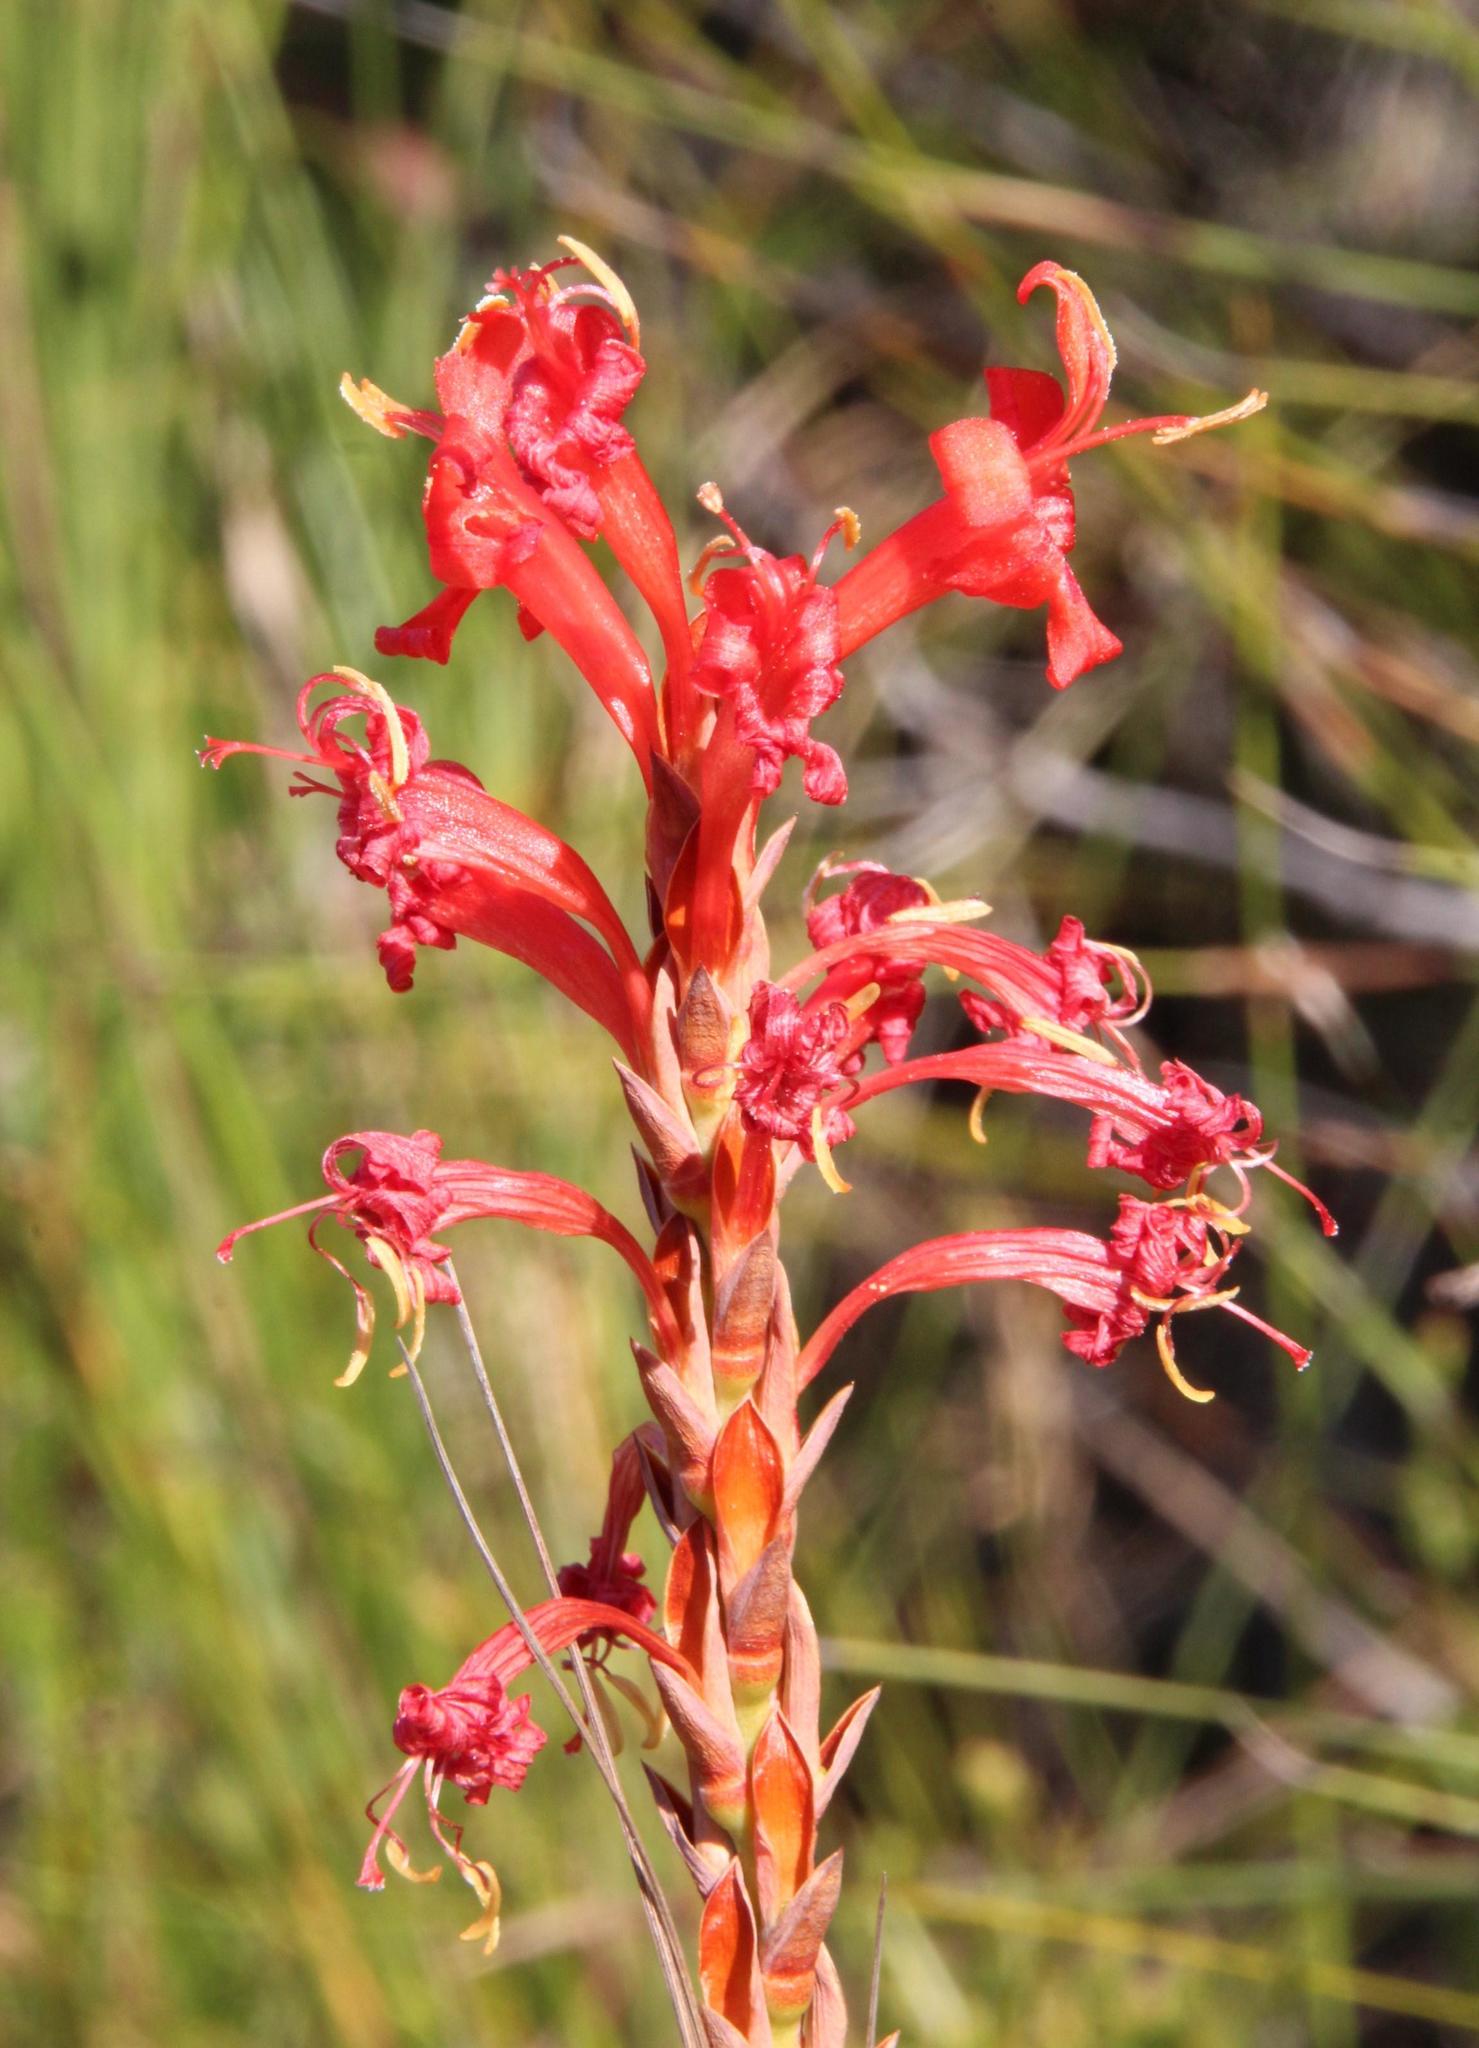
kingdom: Plantae
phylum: Tracheophyta
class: Liliopsida
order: Asparagales
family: Iridaceae
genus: Tritoniopsis
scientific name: Tritoniopsis triticea
